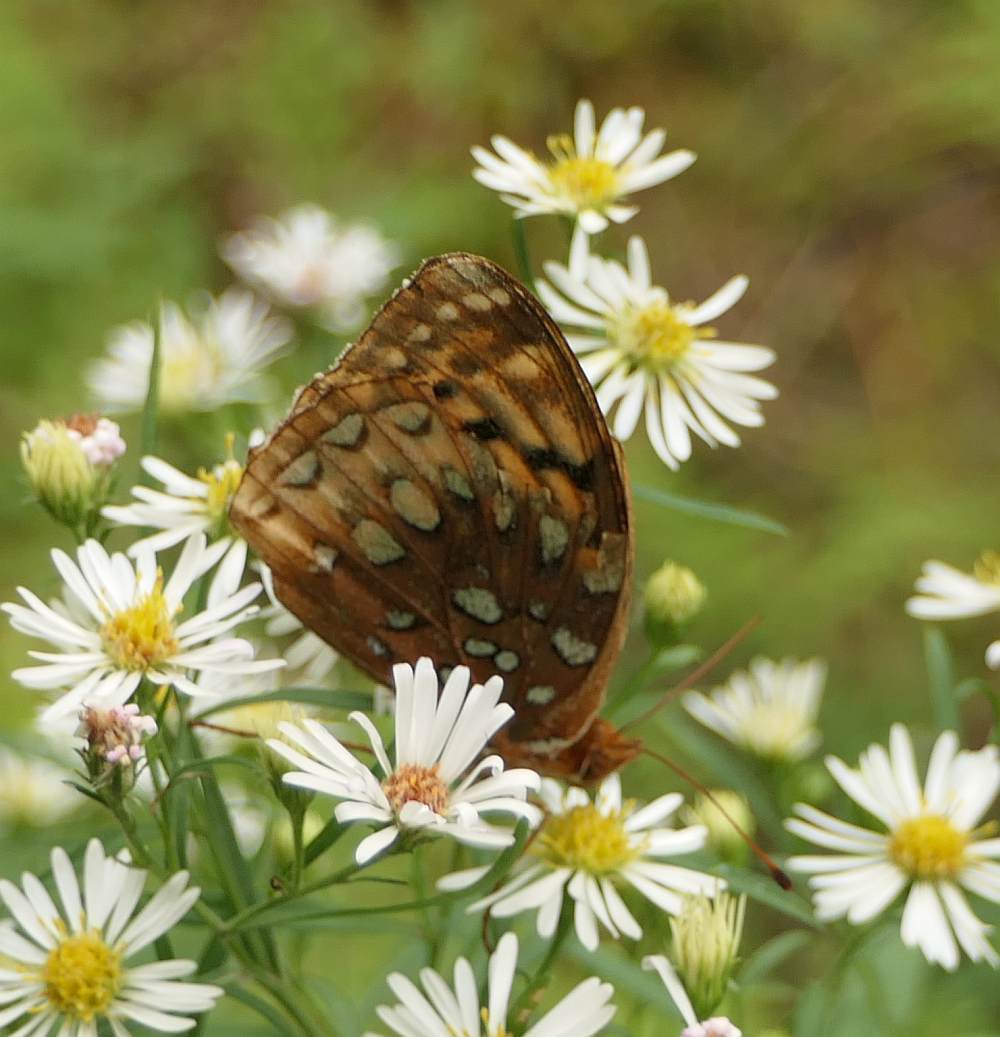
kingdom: Animalia
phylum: Arthropoda
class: Insecta
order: Lepidoptera
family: Nymphalidae
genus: Speyeria
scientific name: Speyeria cybele
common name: Great spangled fritillary
